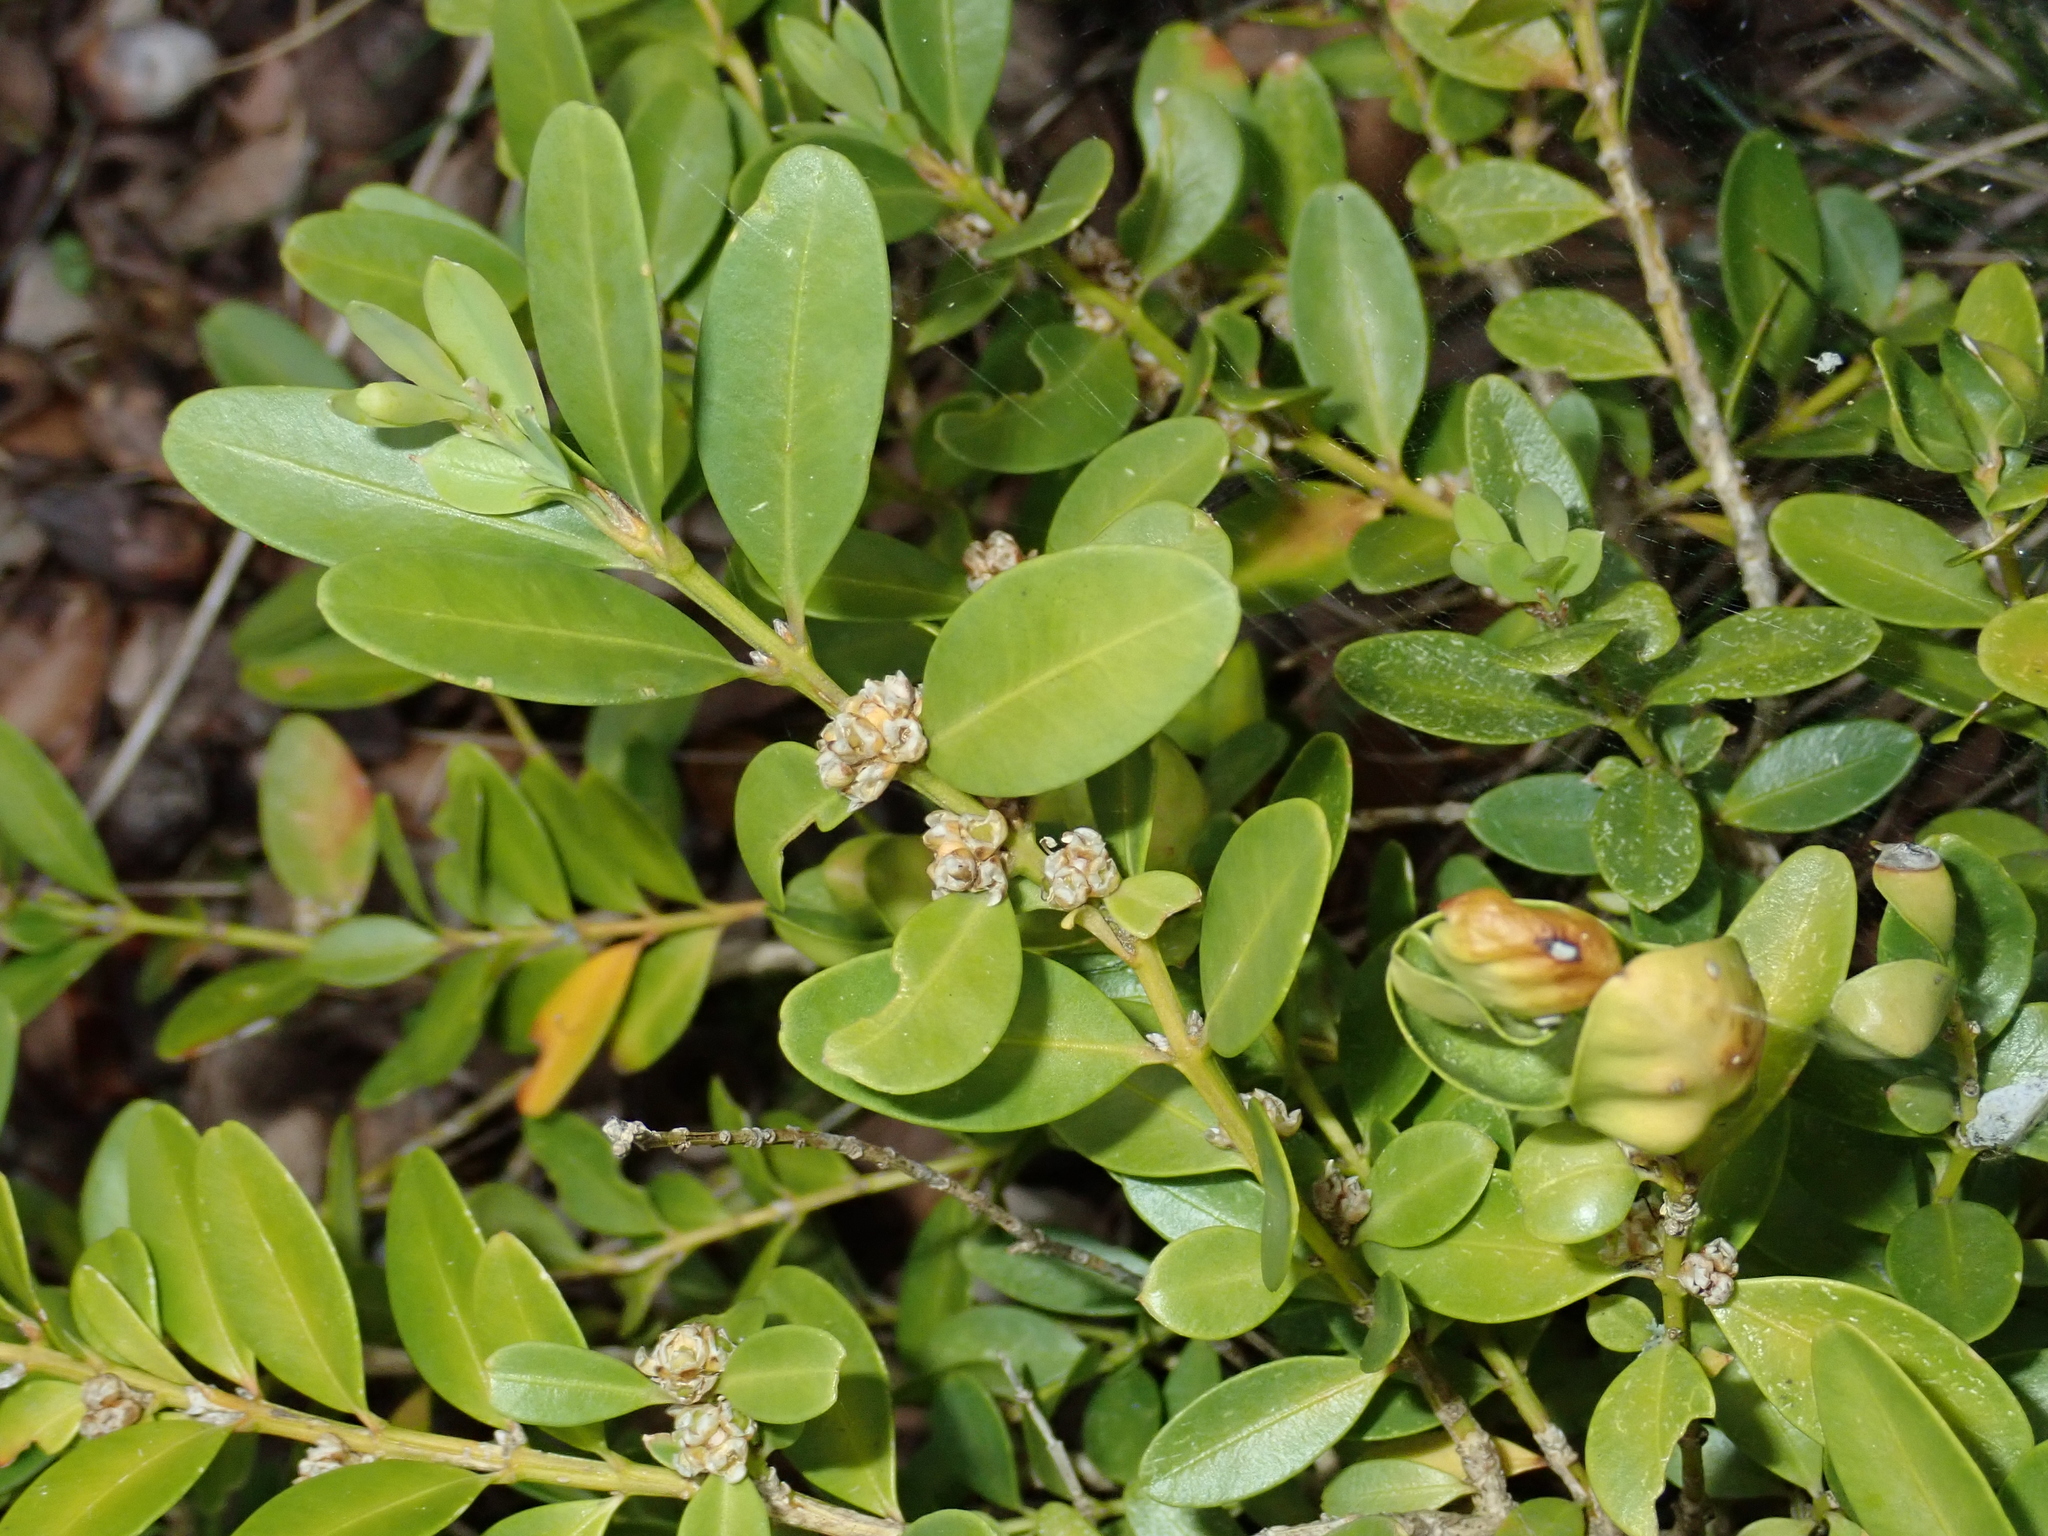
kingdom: Plantae
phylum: Tracheophyta
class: Magnoliopsida
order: Buxales
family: Buxaceae
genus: Buxus
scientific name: Buxus sempervirens
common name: Box
